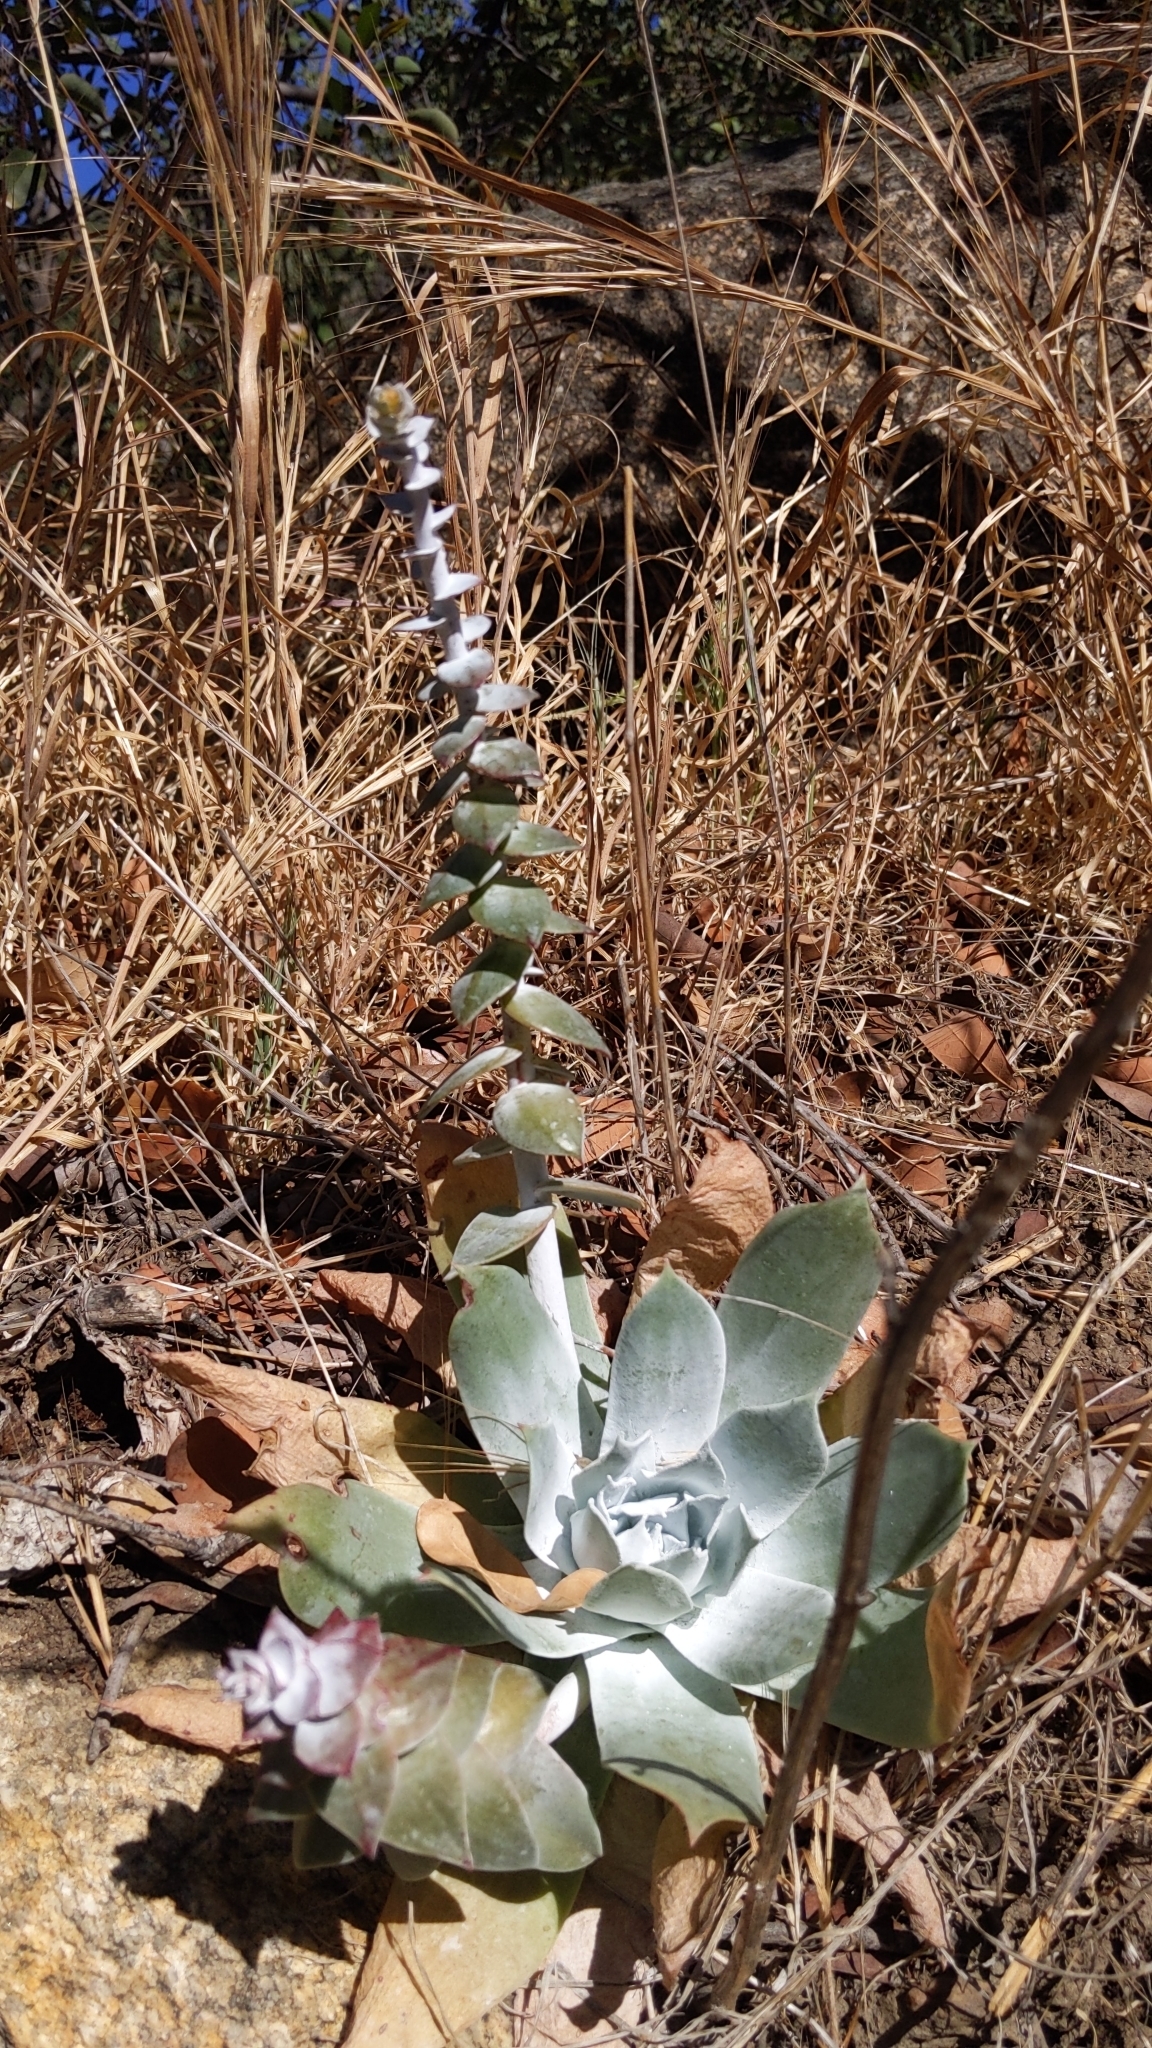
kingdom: Plantae
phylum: Tracheophyta
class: Magnoliopsida
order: Saxifragales
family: Crassulaceae
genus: Dudleya
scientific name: Dudleya pulverulenta
